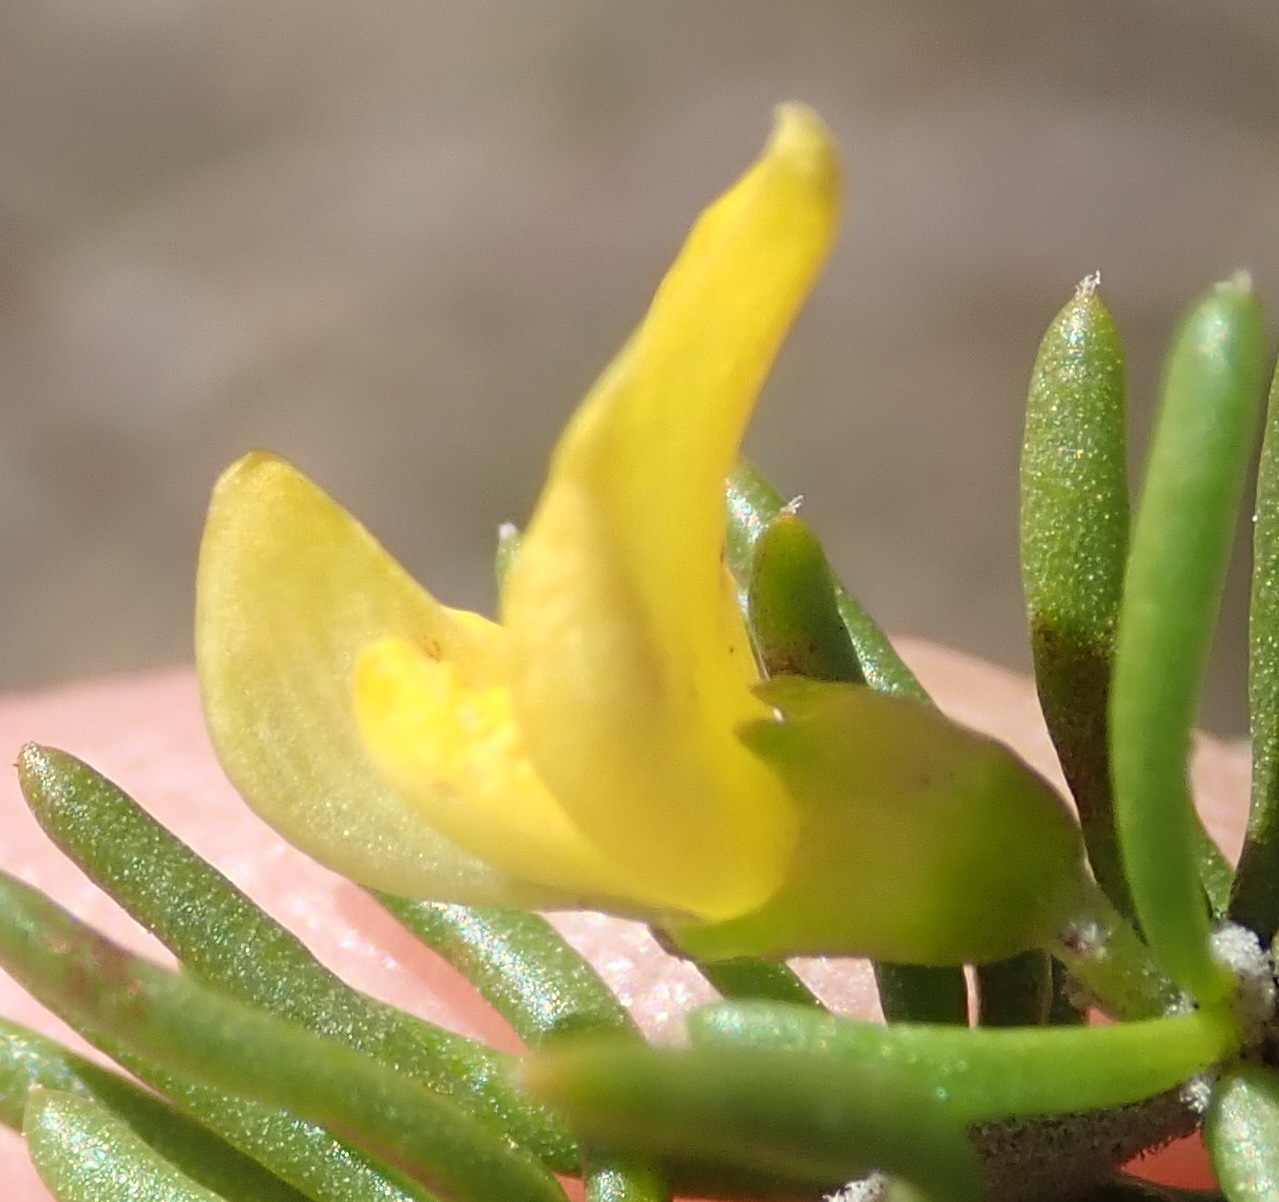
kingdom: Plantae
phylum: Tracheophyta
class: Magnoliopsida
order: Fabales
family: Fabaceae
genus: Aspalathus
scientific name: Aspalathus subtingens
